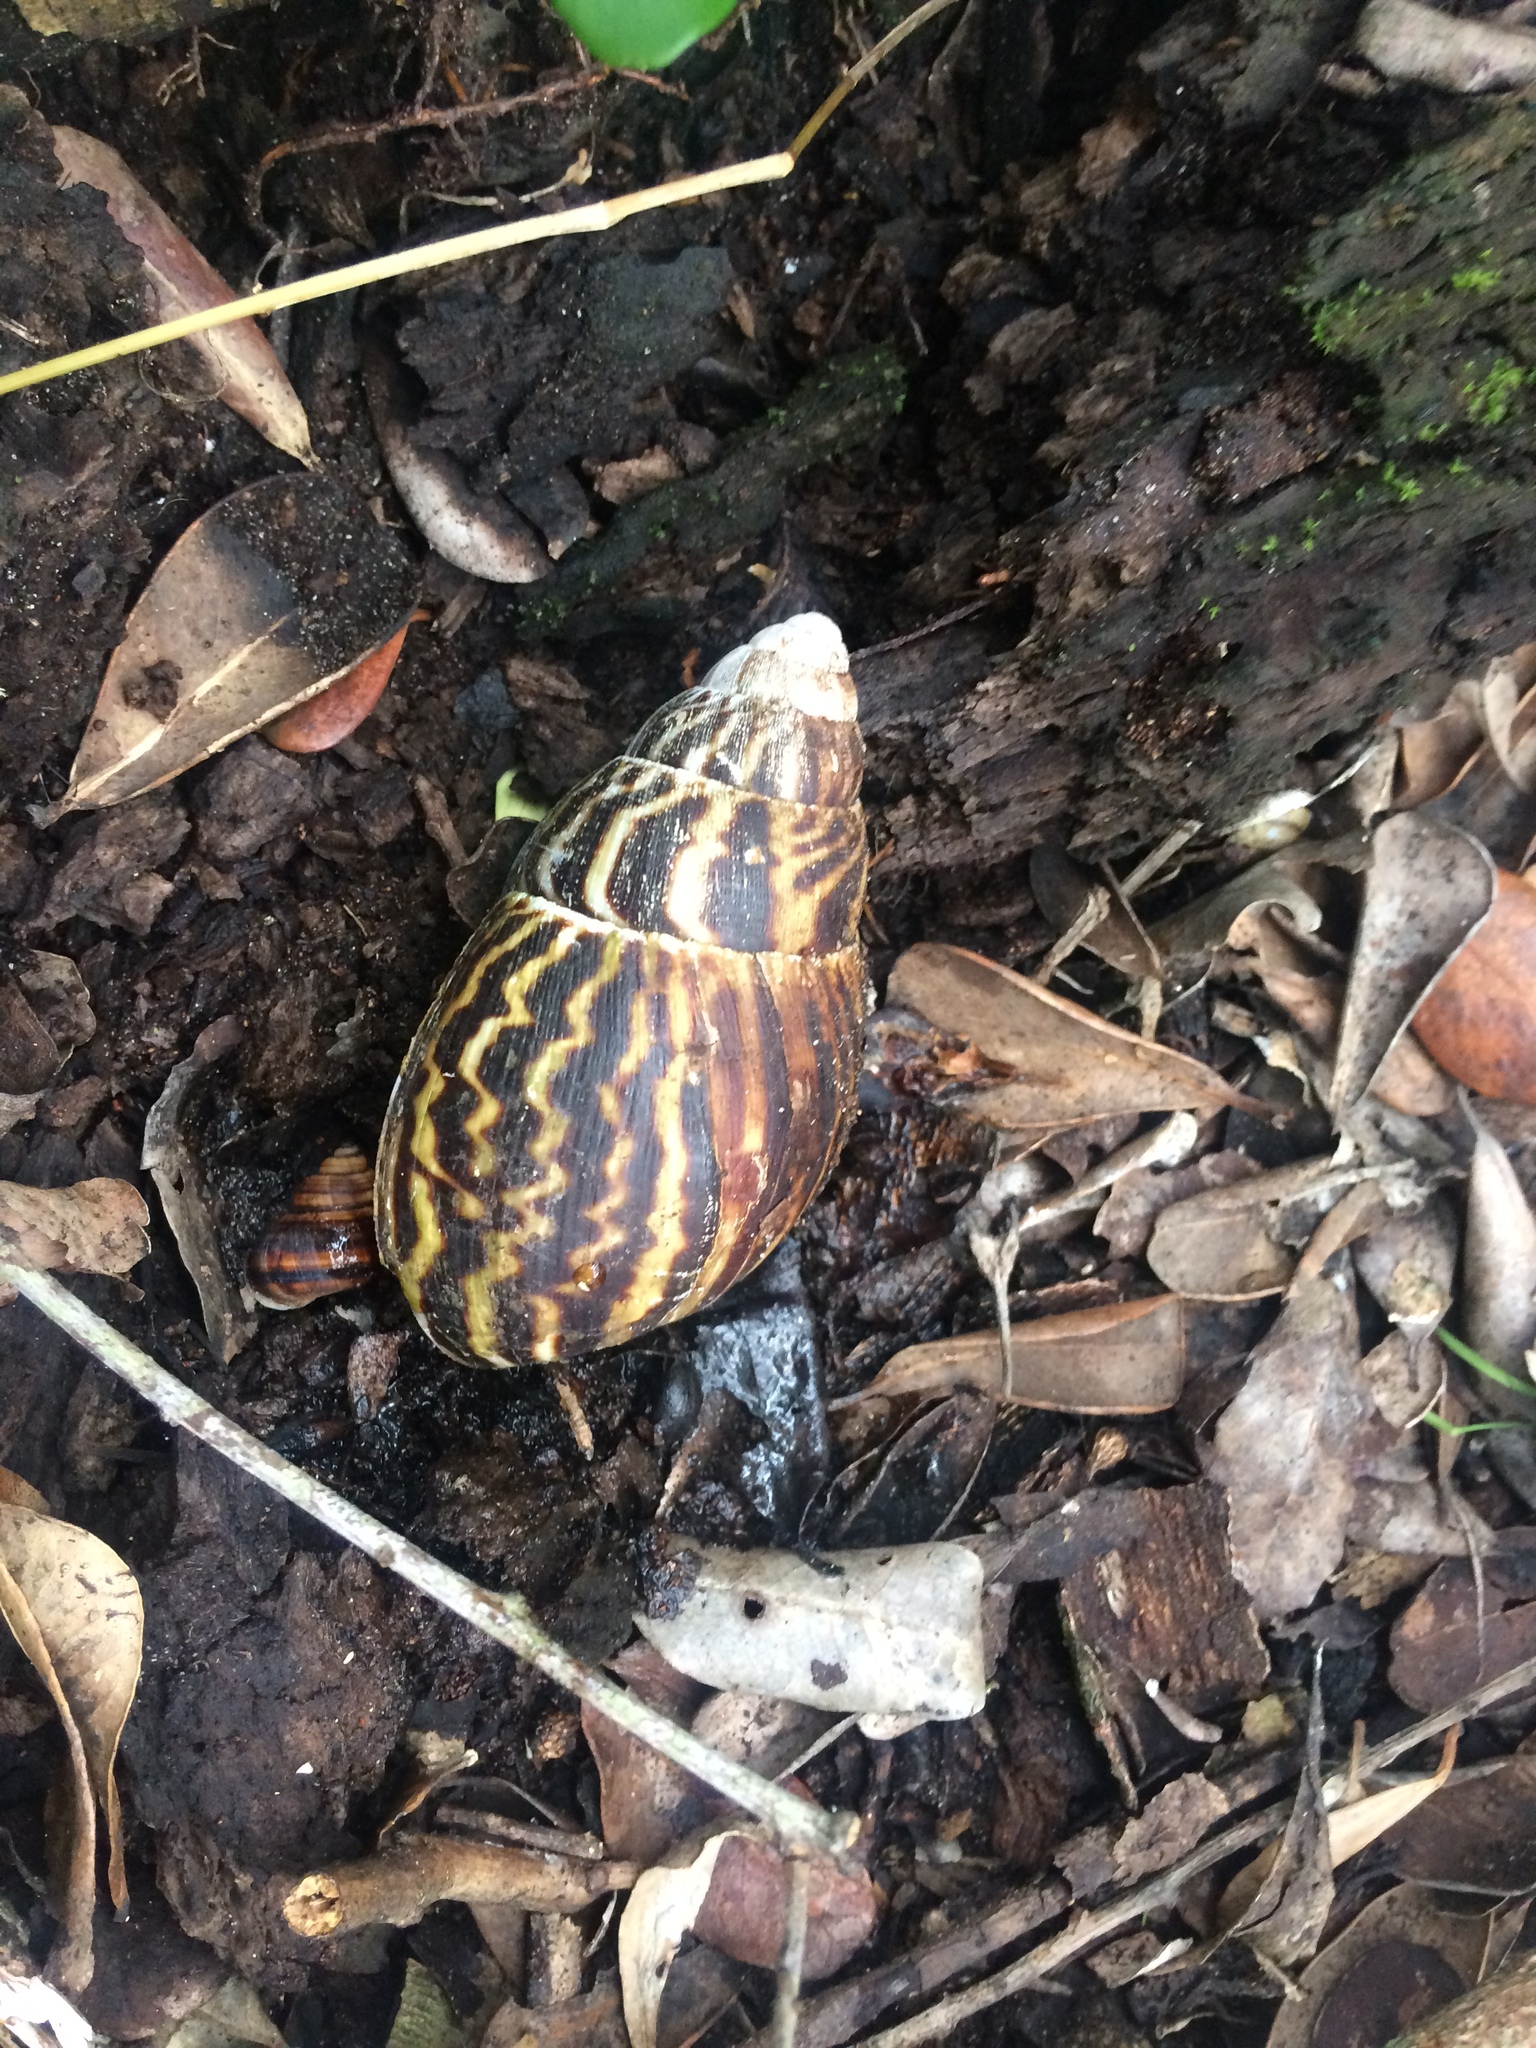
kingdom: Animalia
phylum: Mollusca
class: Gastropoda
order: Stylommatophora
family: Achatinidae
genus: Cochlitoma
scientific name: Cochlitoma zebra
